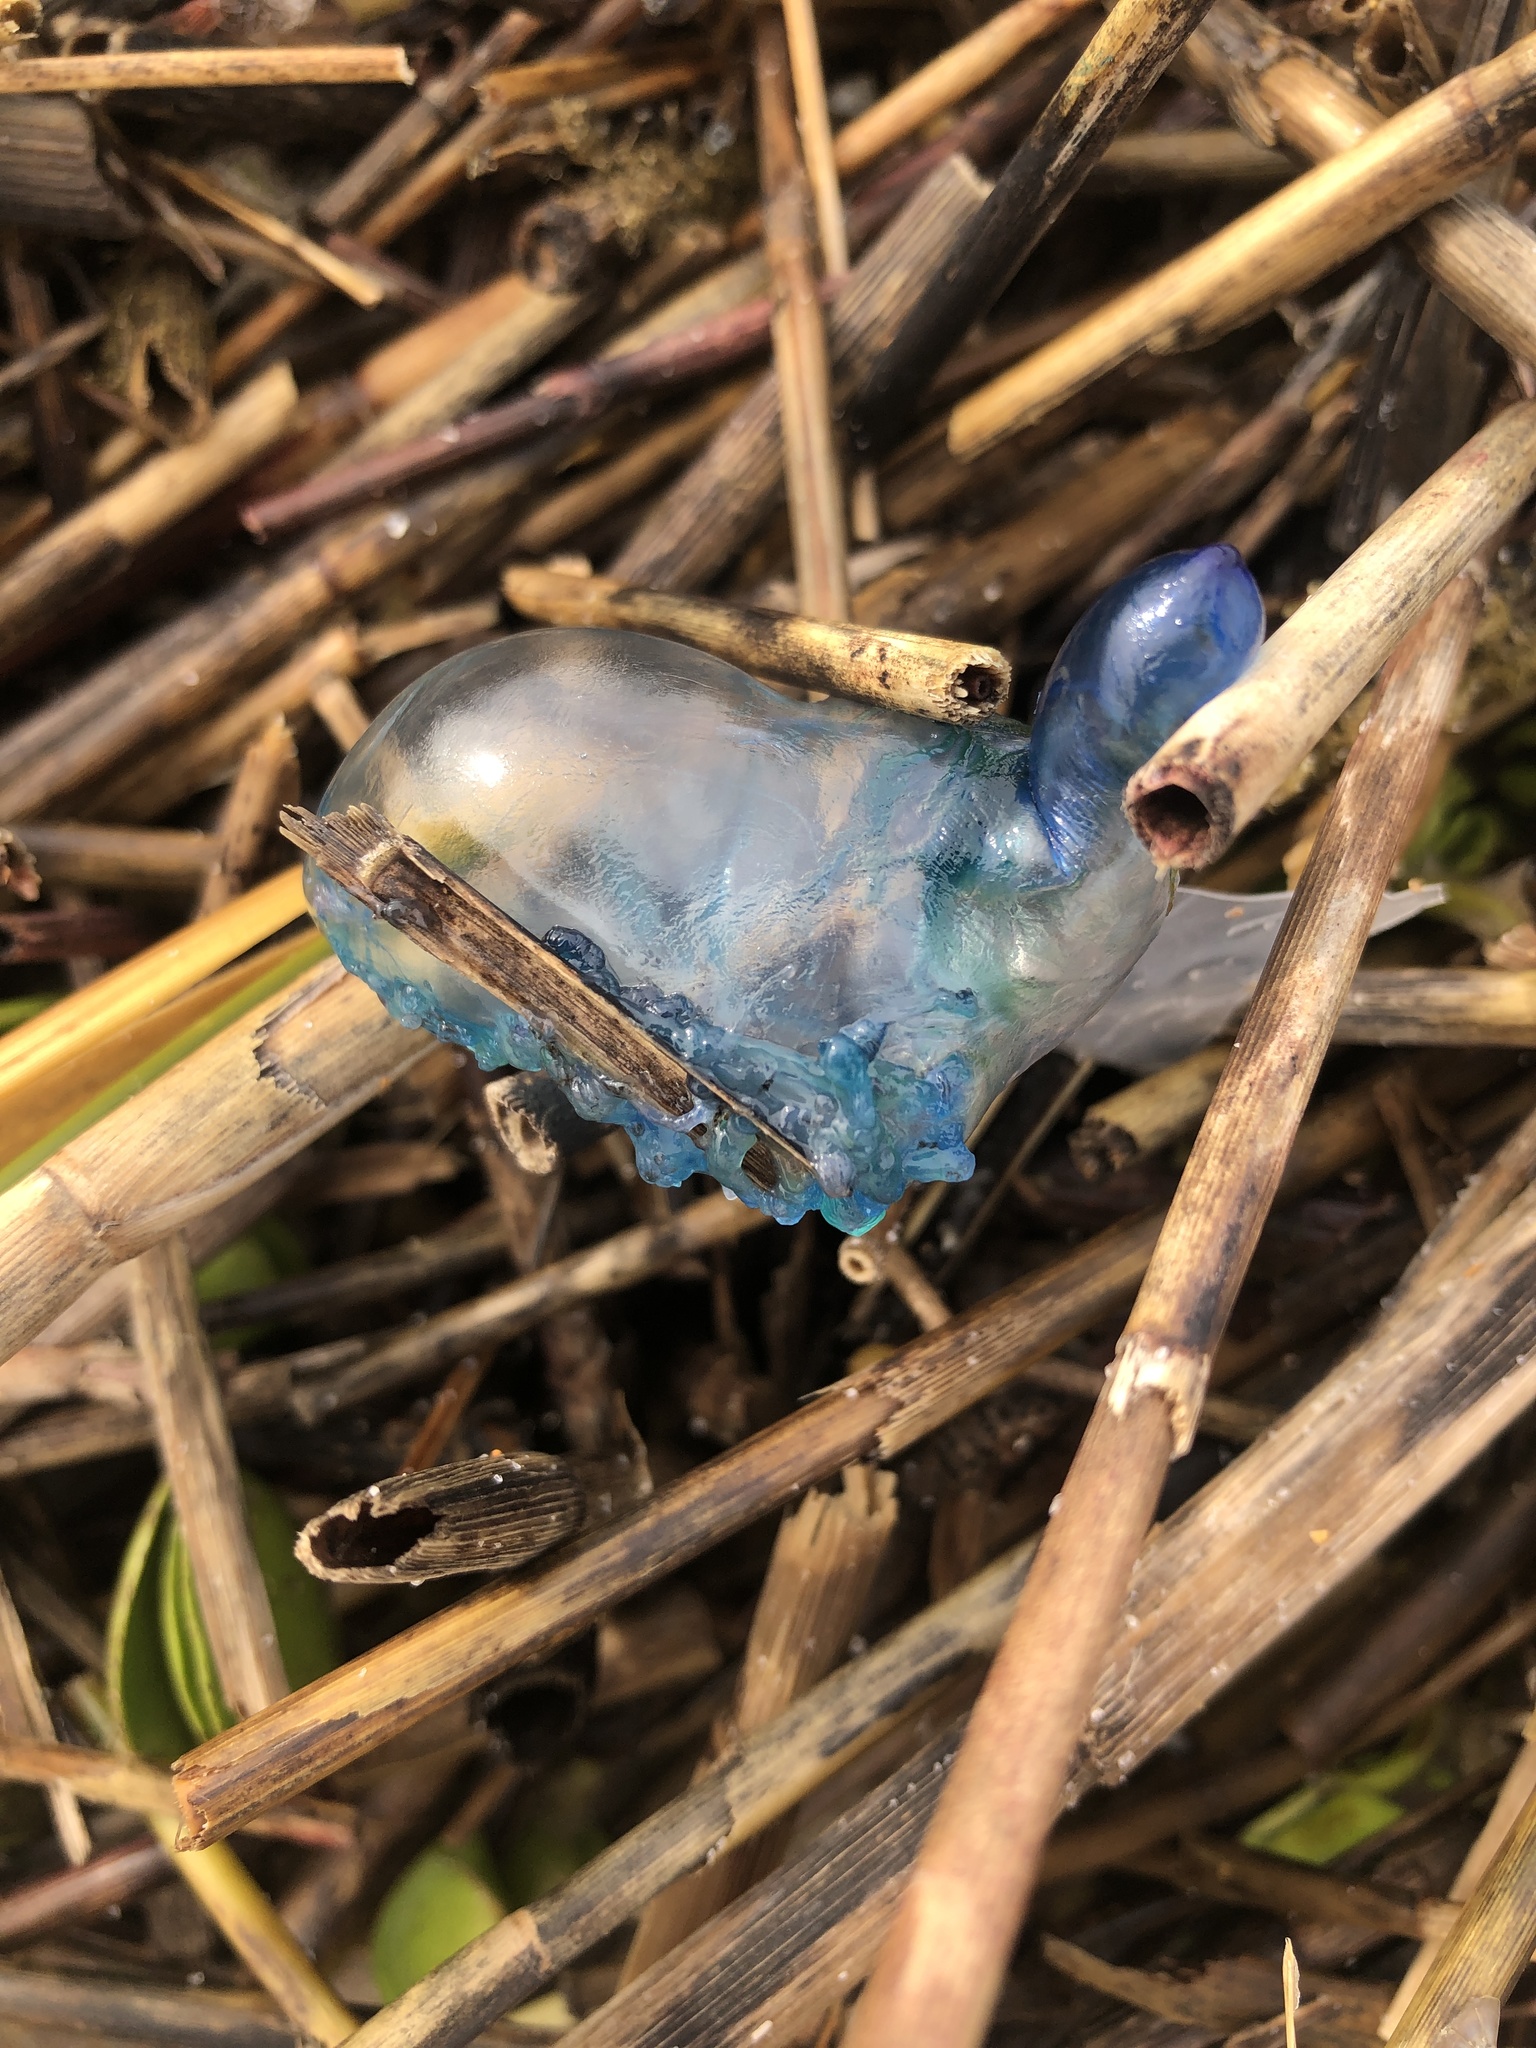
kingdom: Animalia
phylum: Cnidaria
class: Hydrozoa
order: Siphonophorae
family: Physaliidae
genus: Physalia
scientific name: Physalia physalis
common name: Portuguese man-of-war
